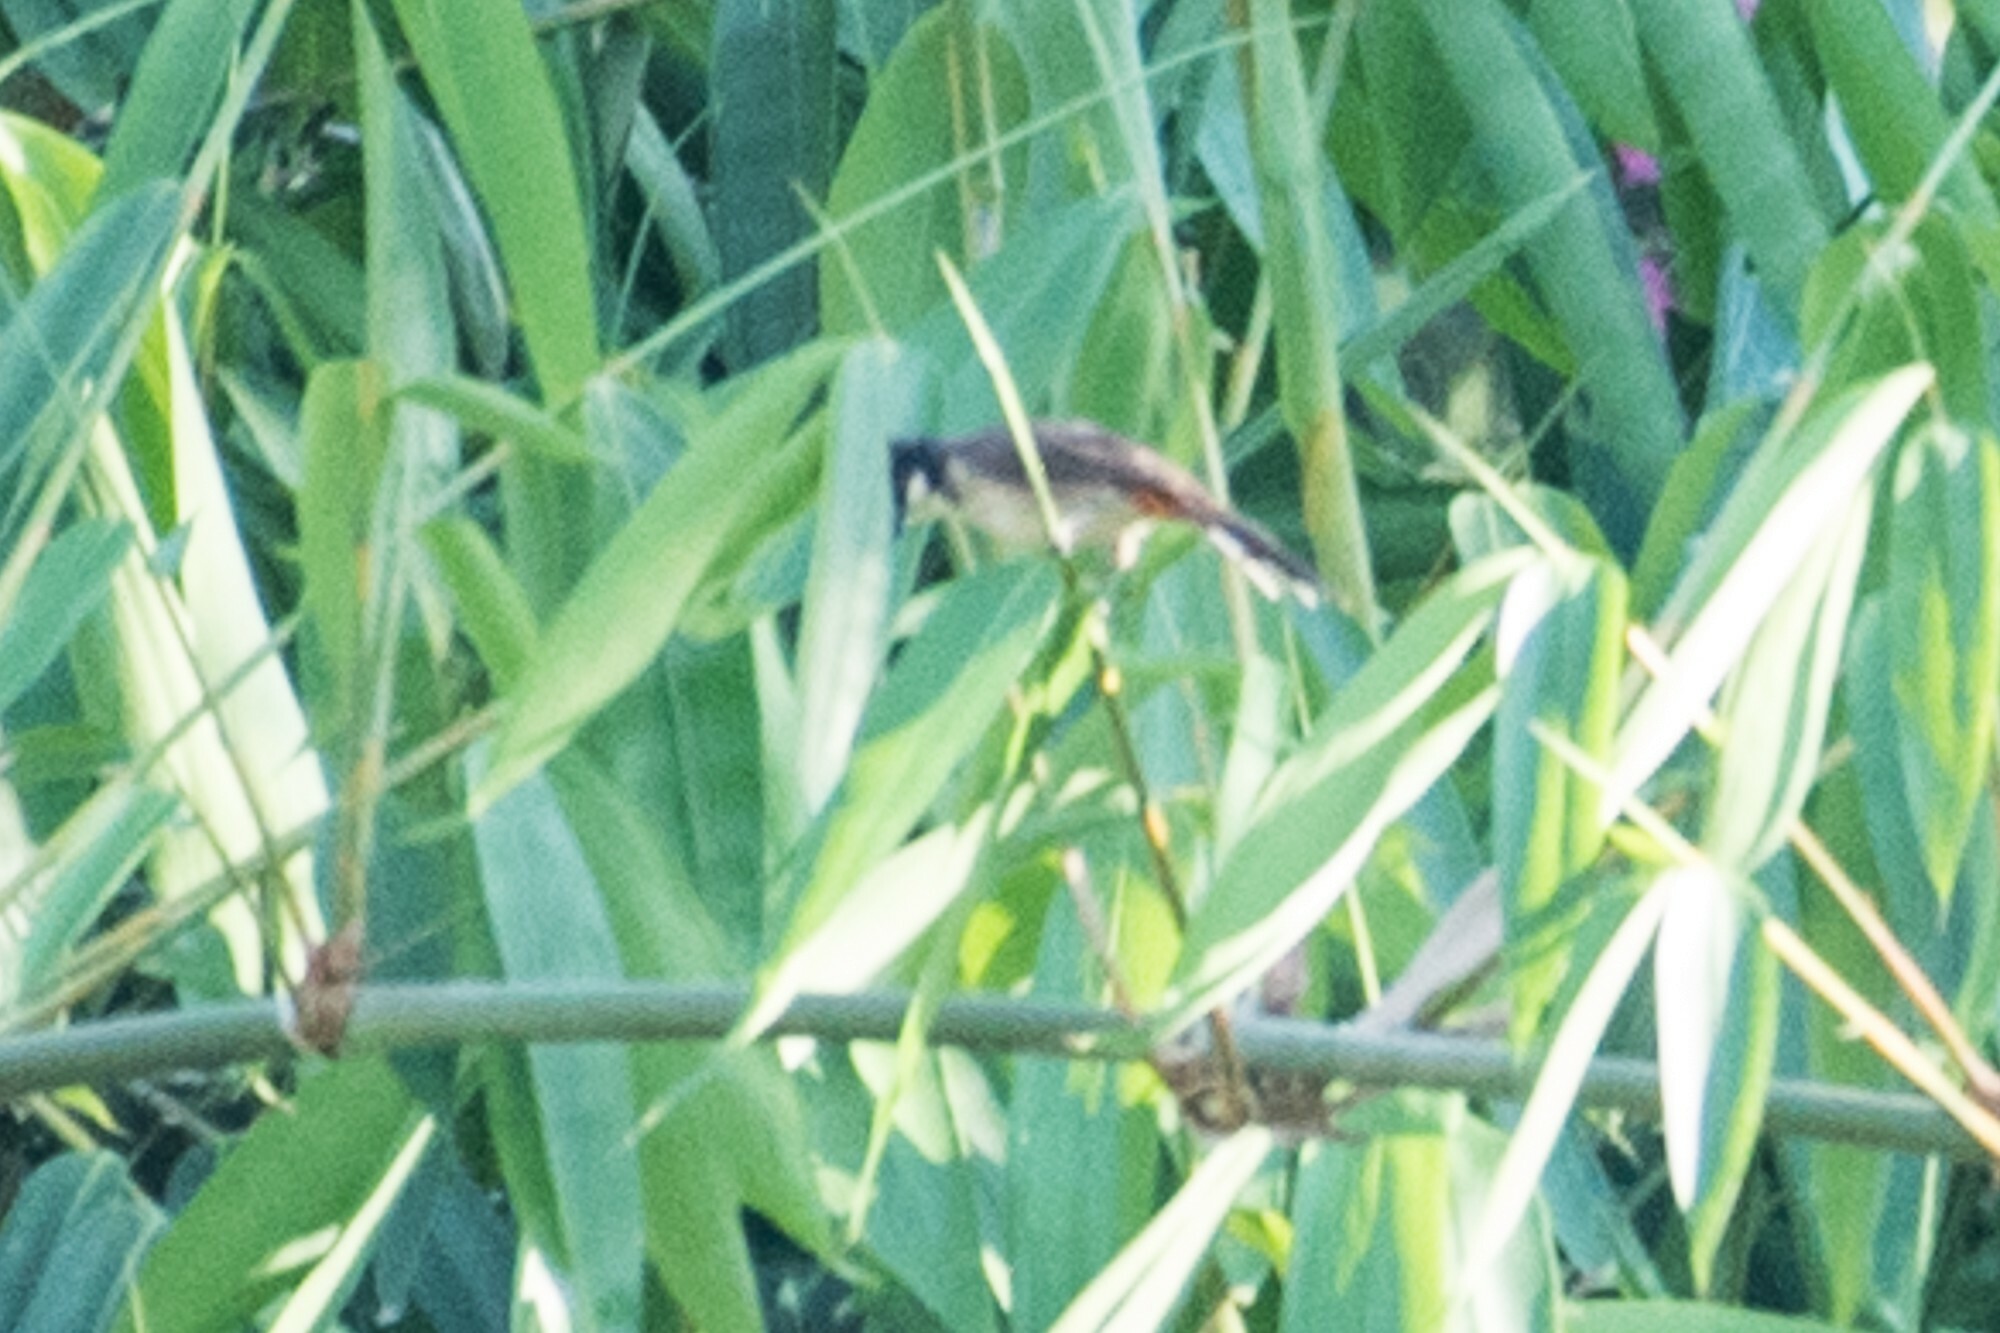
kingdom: Animalia
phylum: Chordata
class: Aves
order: Passeriformes
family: Pycnonotidae
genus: Pycnonotus
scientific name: Pycnonotus jocosus
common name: Red-whiskered bulbul
